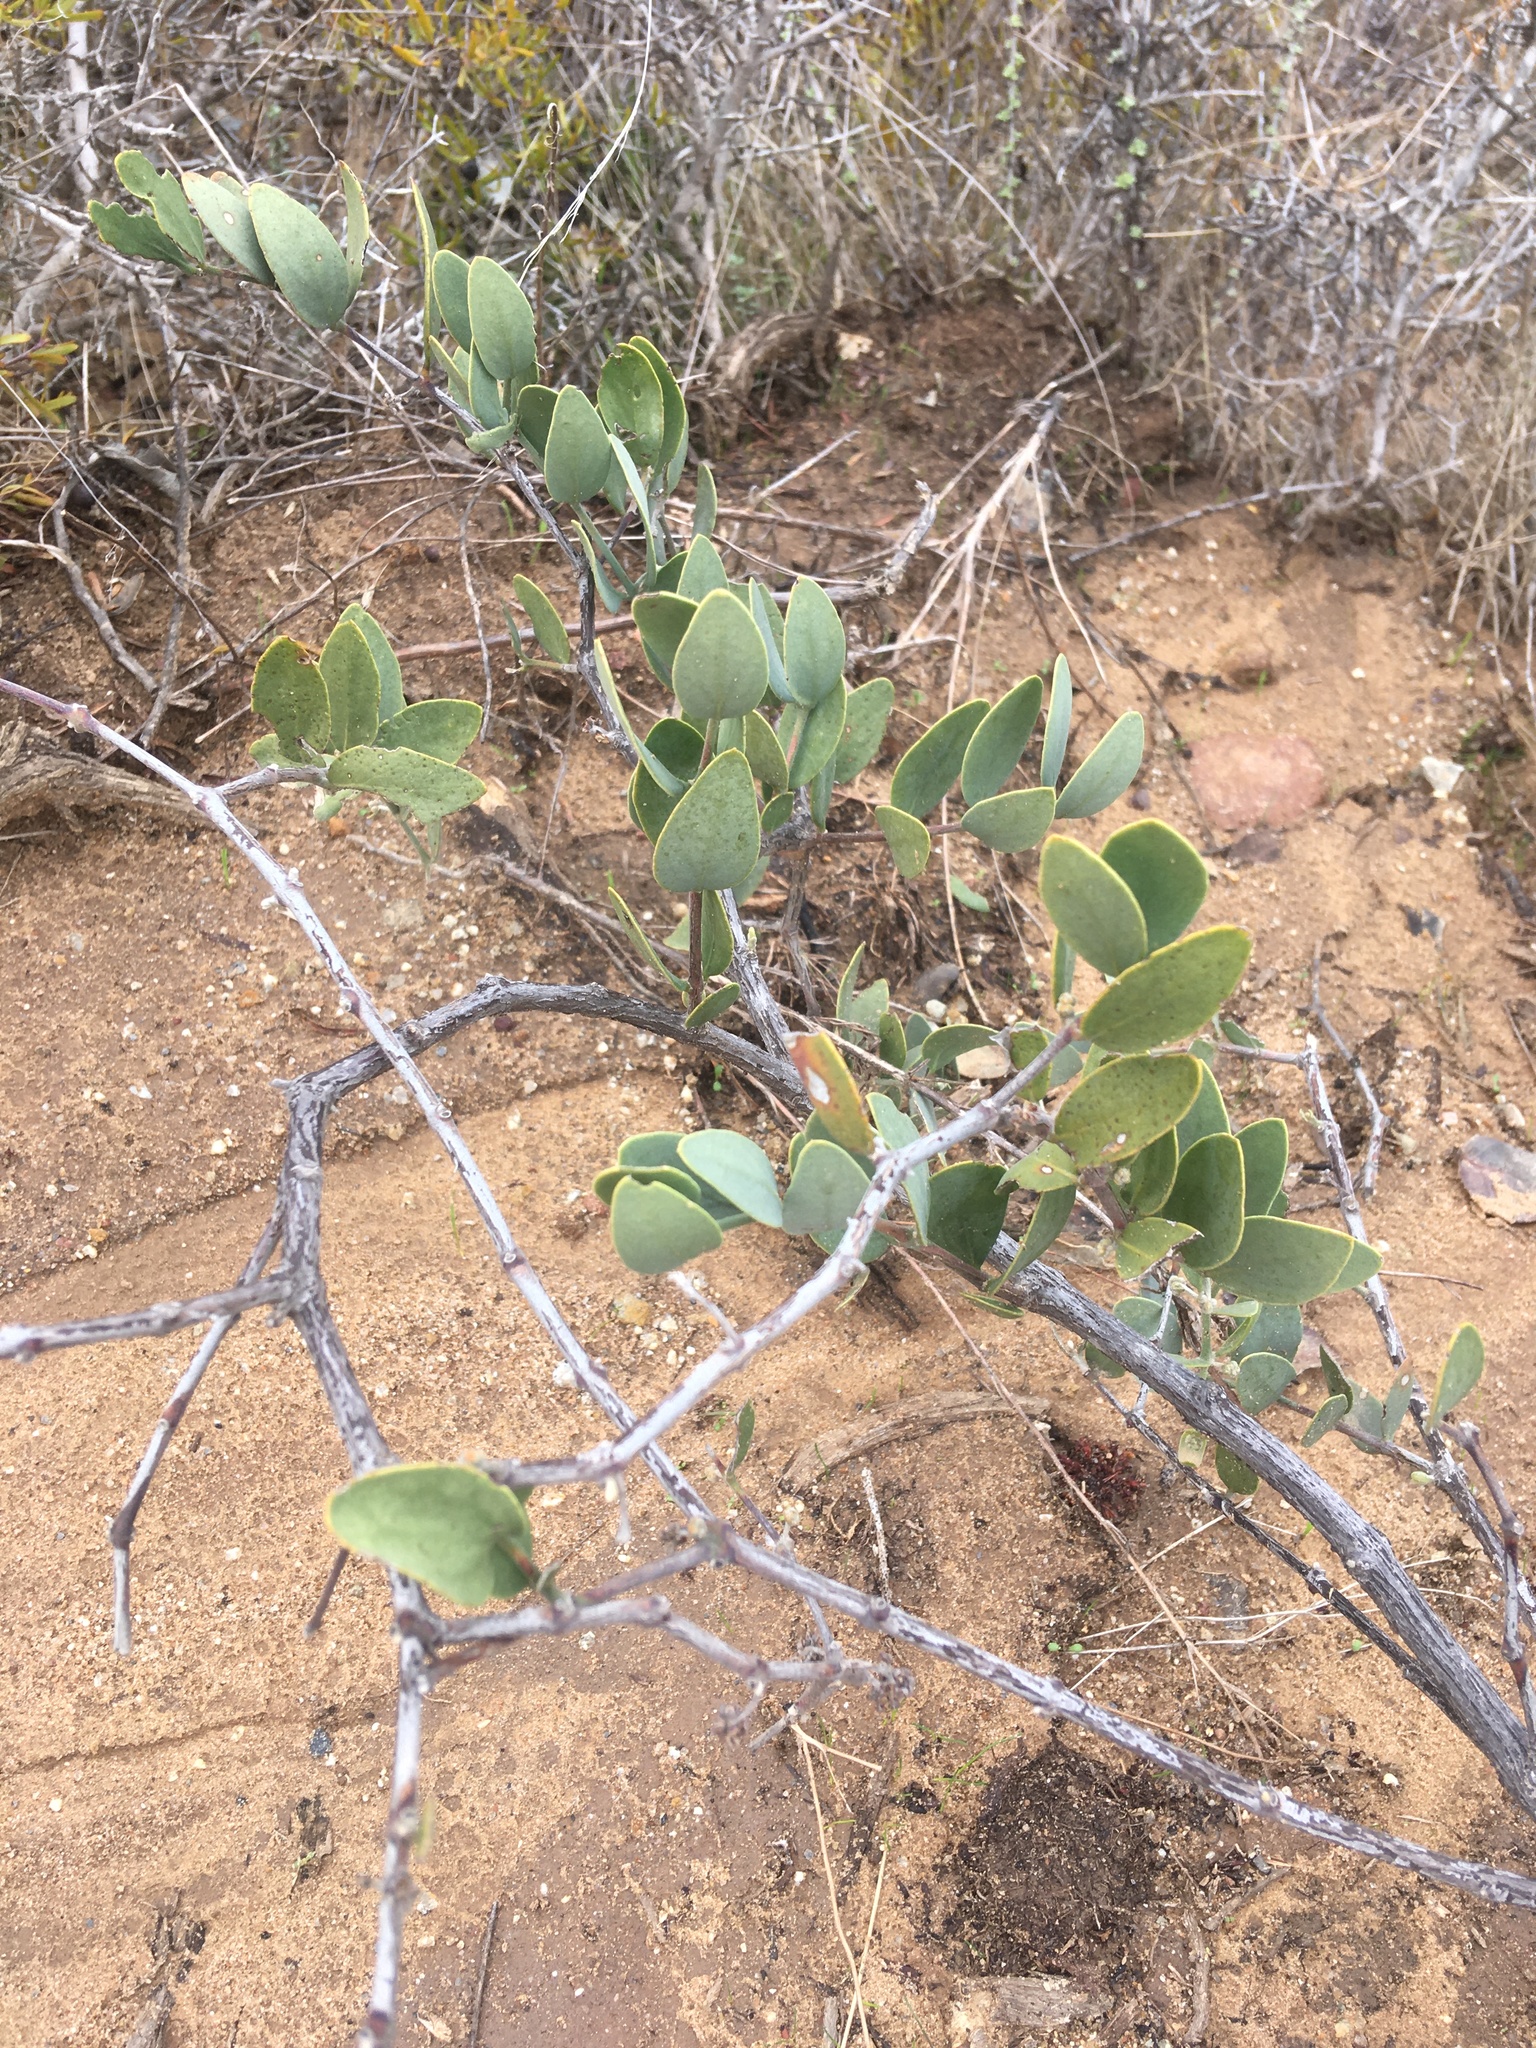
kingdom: Plantae
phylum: Tracheophyta
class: Magnoliopsida
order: Caryophyllales
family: Simmondsiaceae
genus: Simmondsia
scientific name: Simmondsia chinensis
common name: Jojoba
